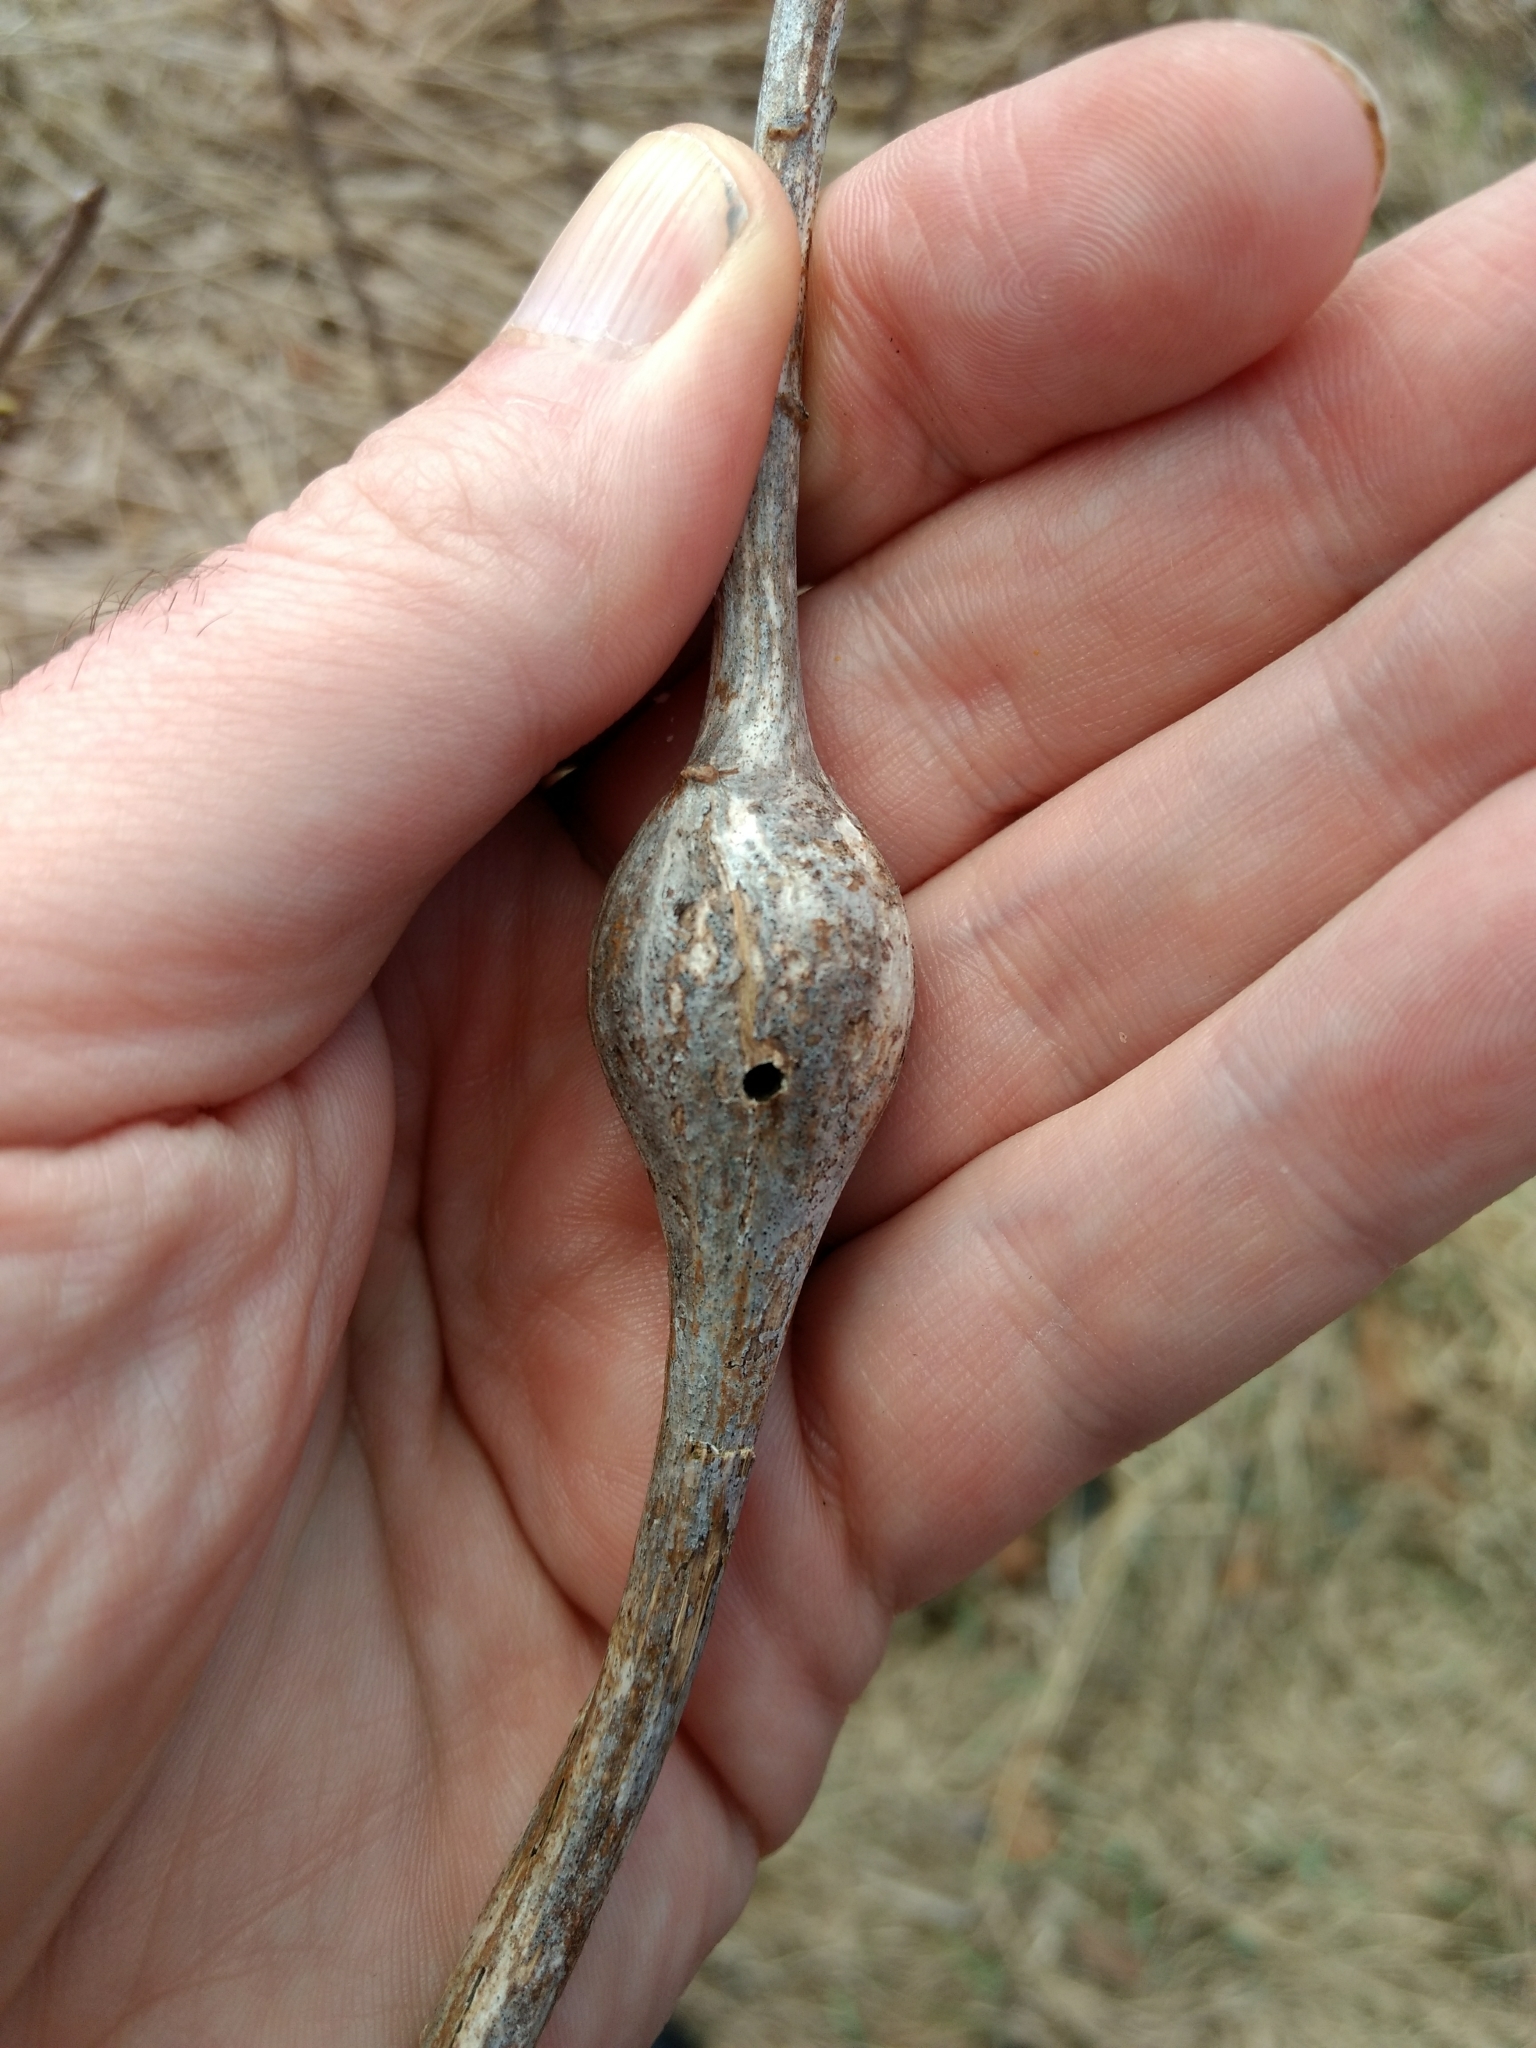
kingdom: Animalia
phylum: Arthropoda
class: Insecta
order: Diptera
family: Tephritidae
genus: Eurosta
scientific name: Eurosta solidaginis
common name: Goldenrod gall fly
